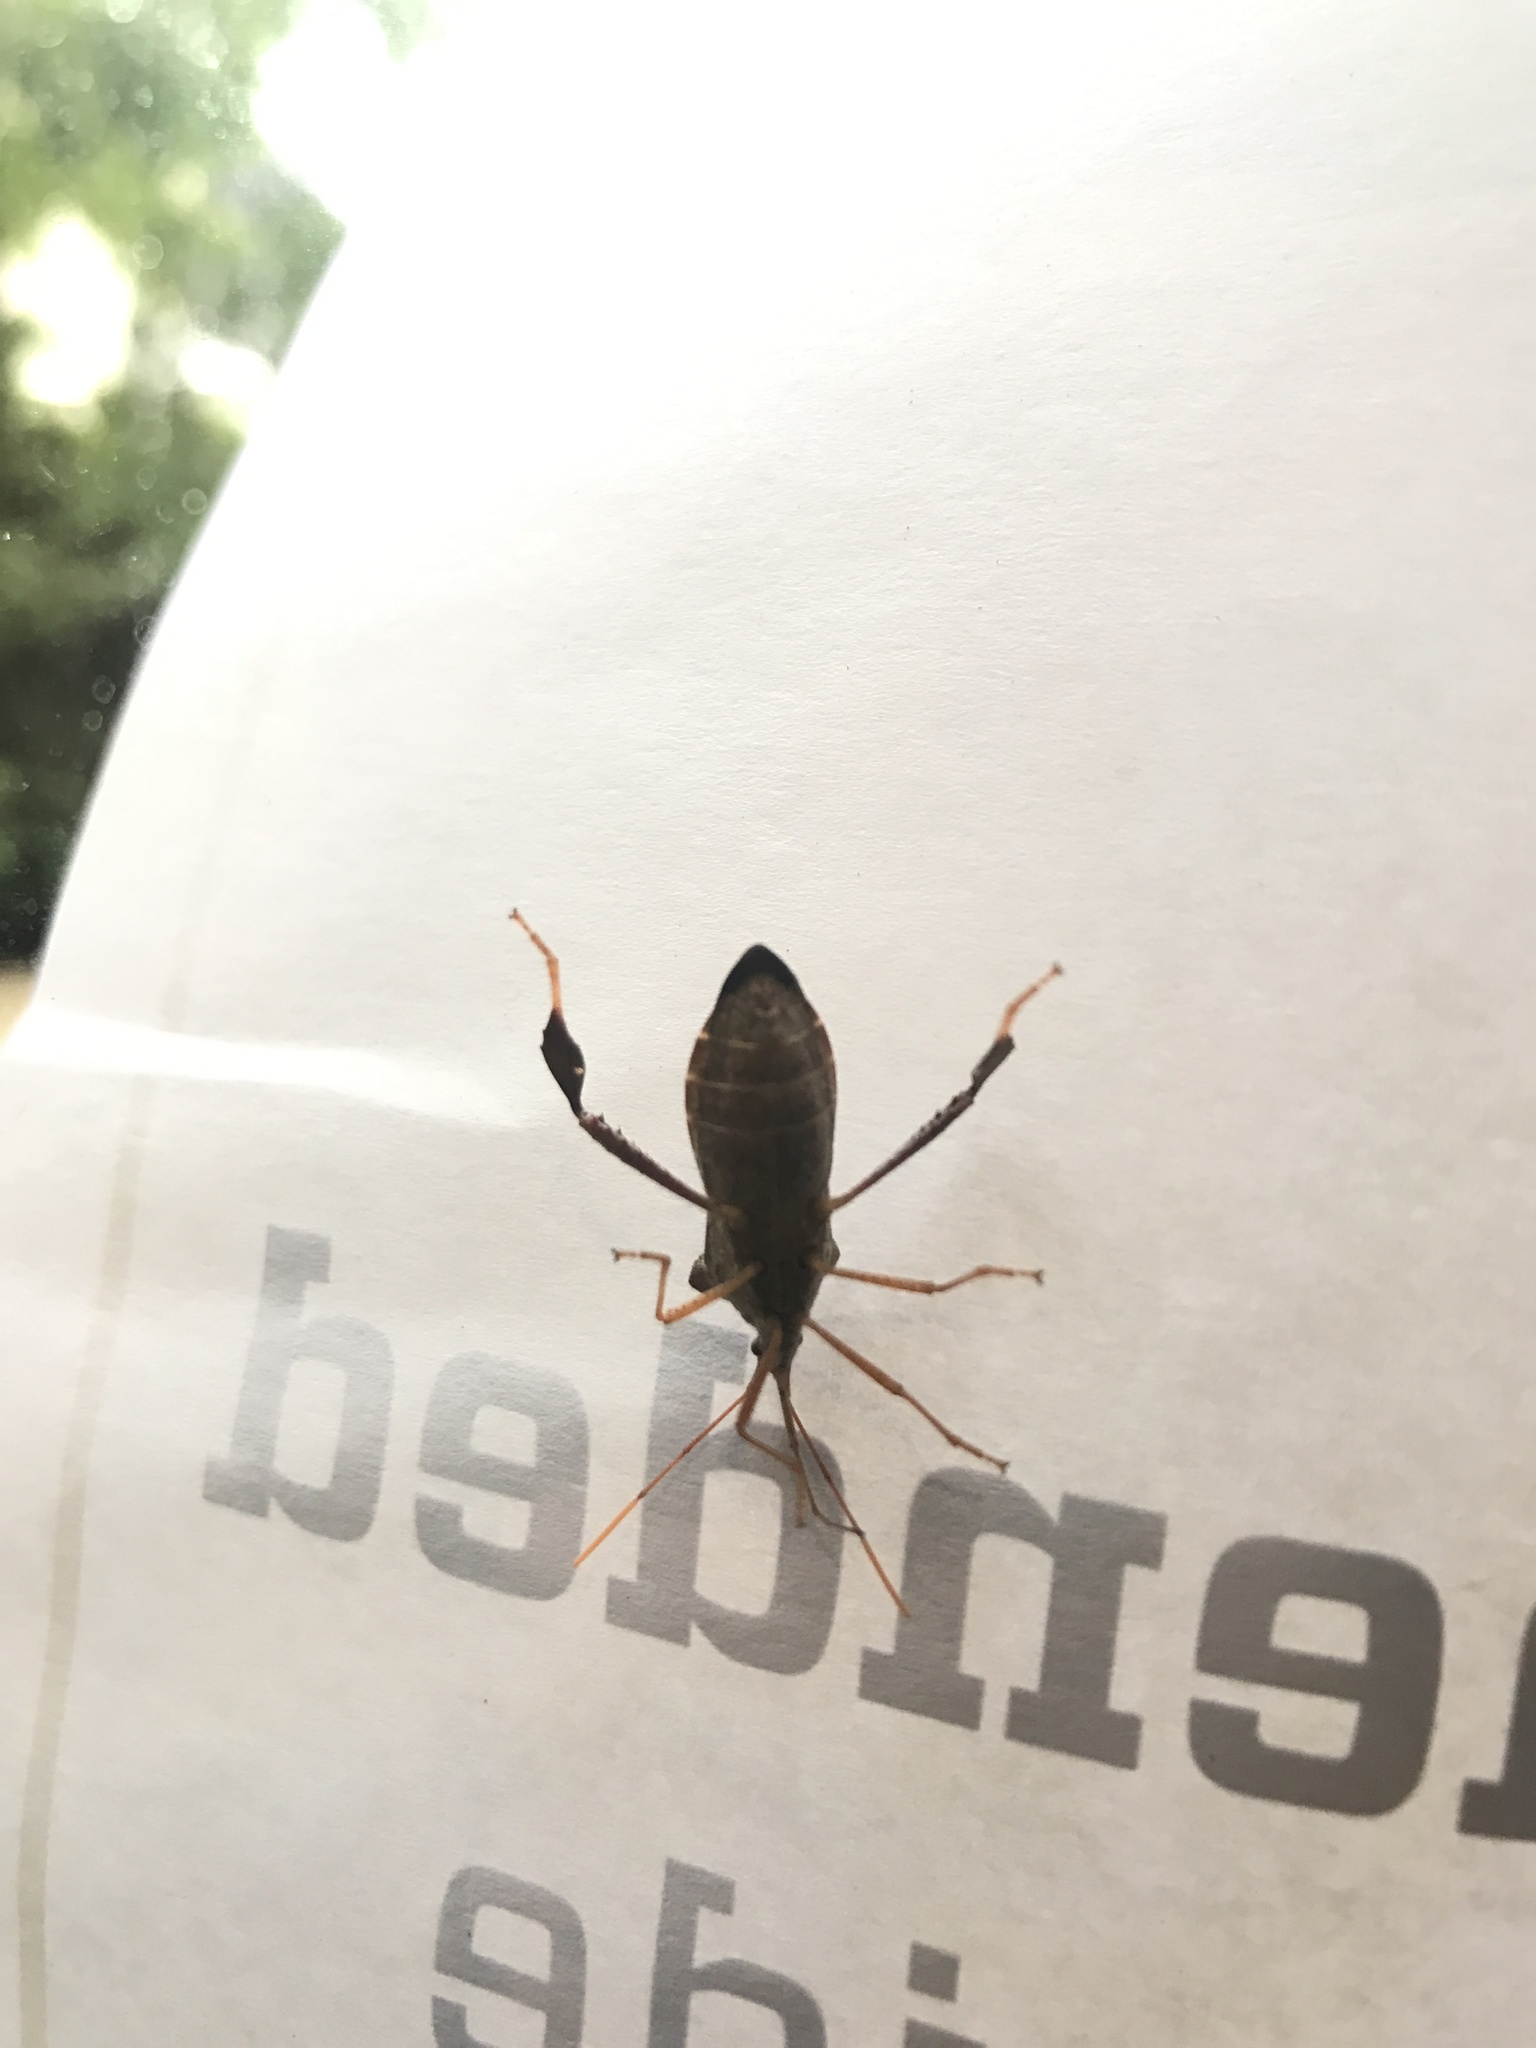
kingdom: Animalia
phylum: Arthropoda
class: Insecta
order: Hemiptera
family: Coreidae
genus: Leptoglossus
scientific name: Leptoglossus fulvicornis
